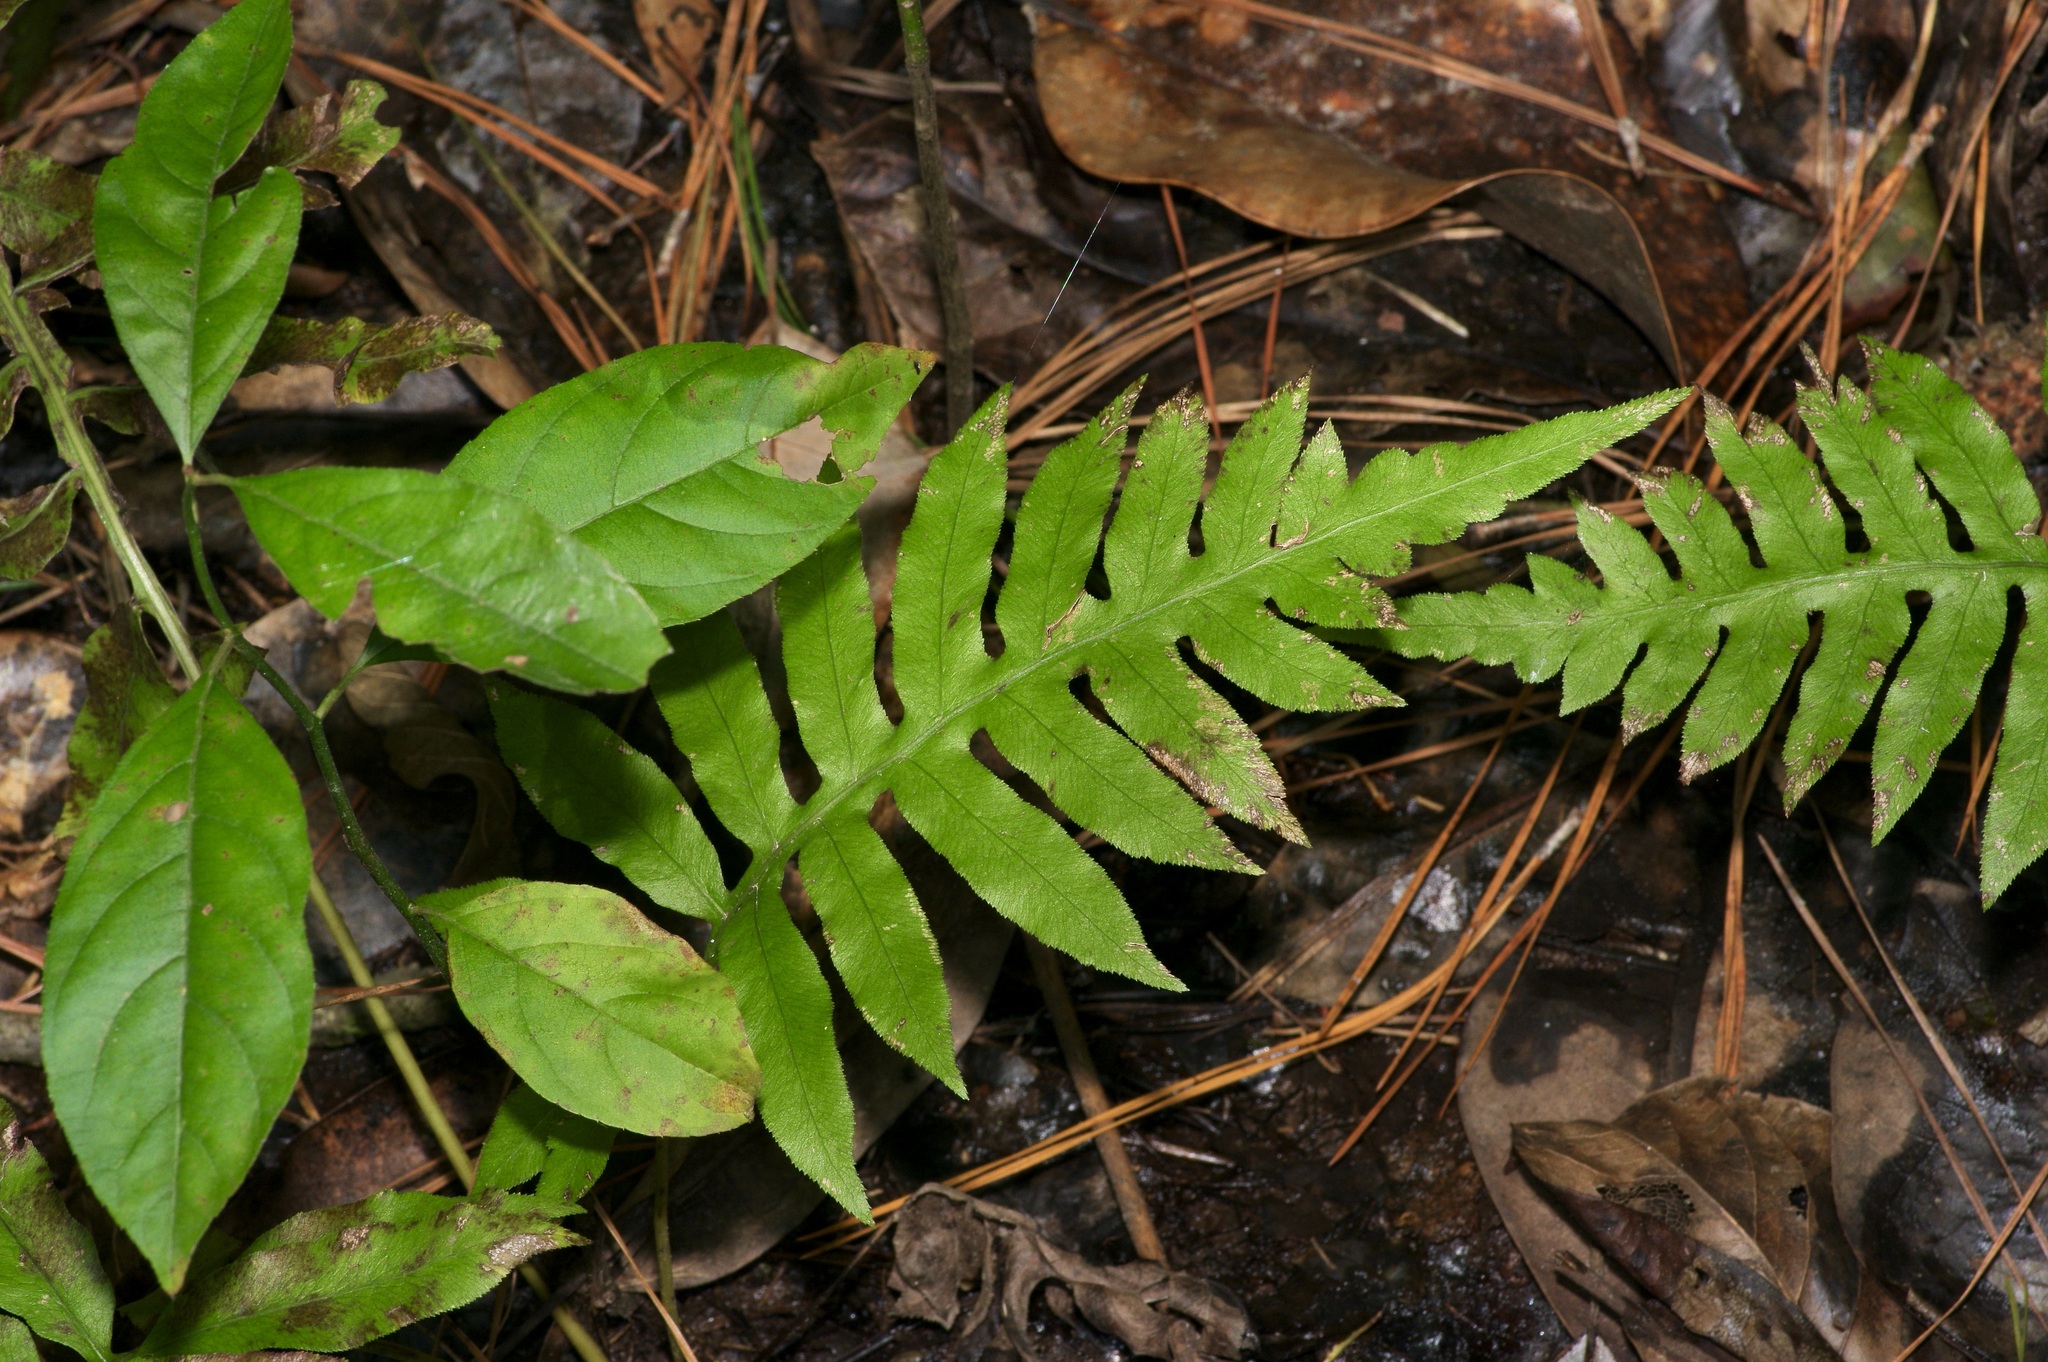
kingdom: Plantae
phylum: Tracheophyta
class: Polypodiopsida
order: Polypodiales
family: Blechnaceae
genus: Lorinseria
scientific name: Lorinseria areolata
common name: Dwarf chain fern
